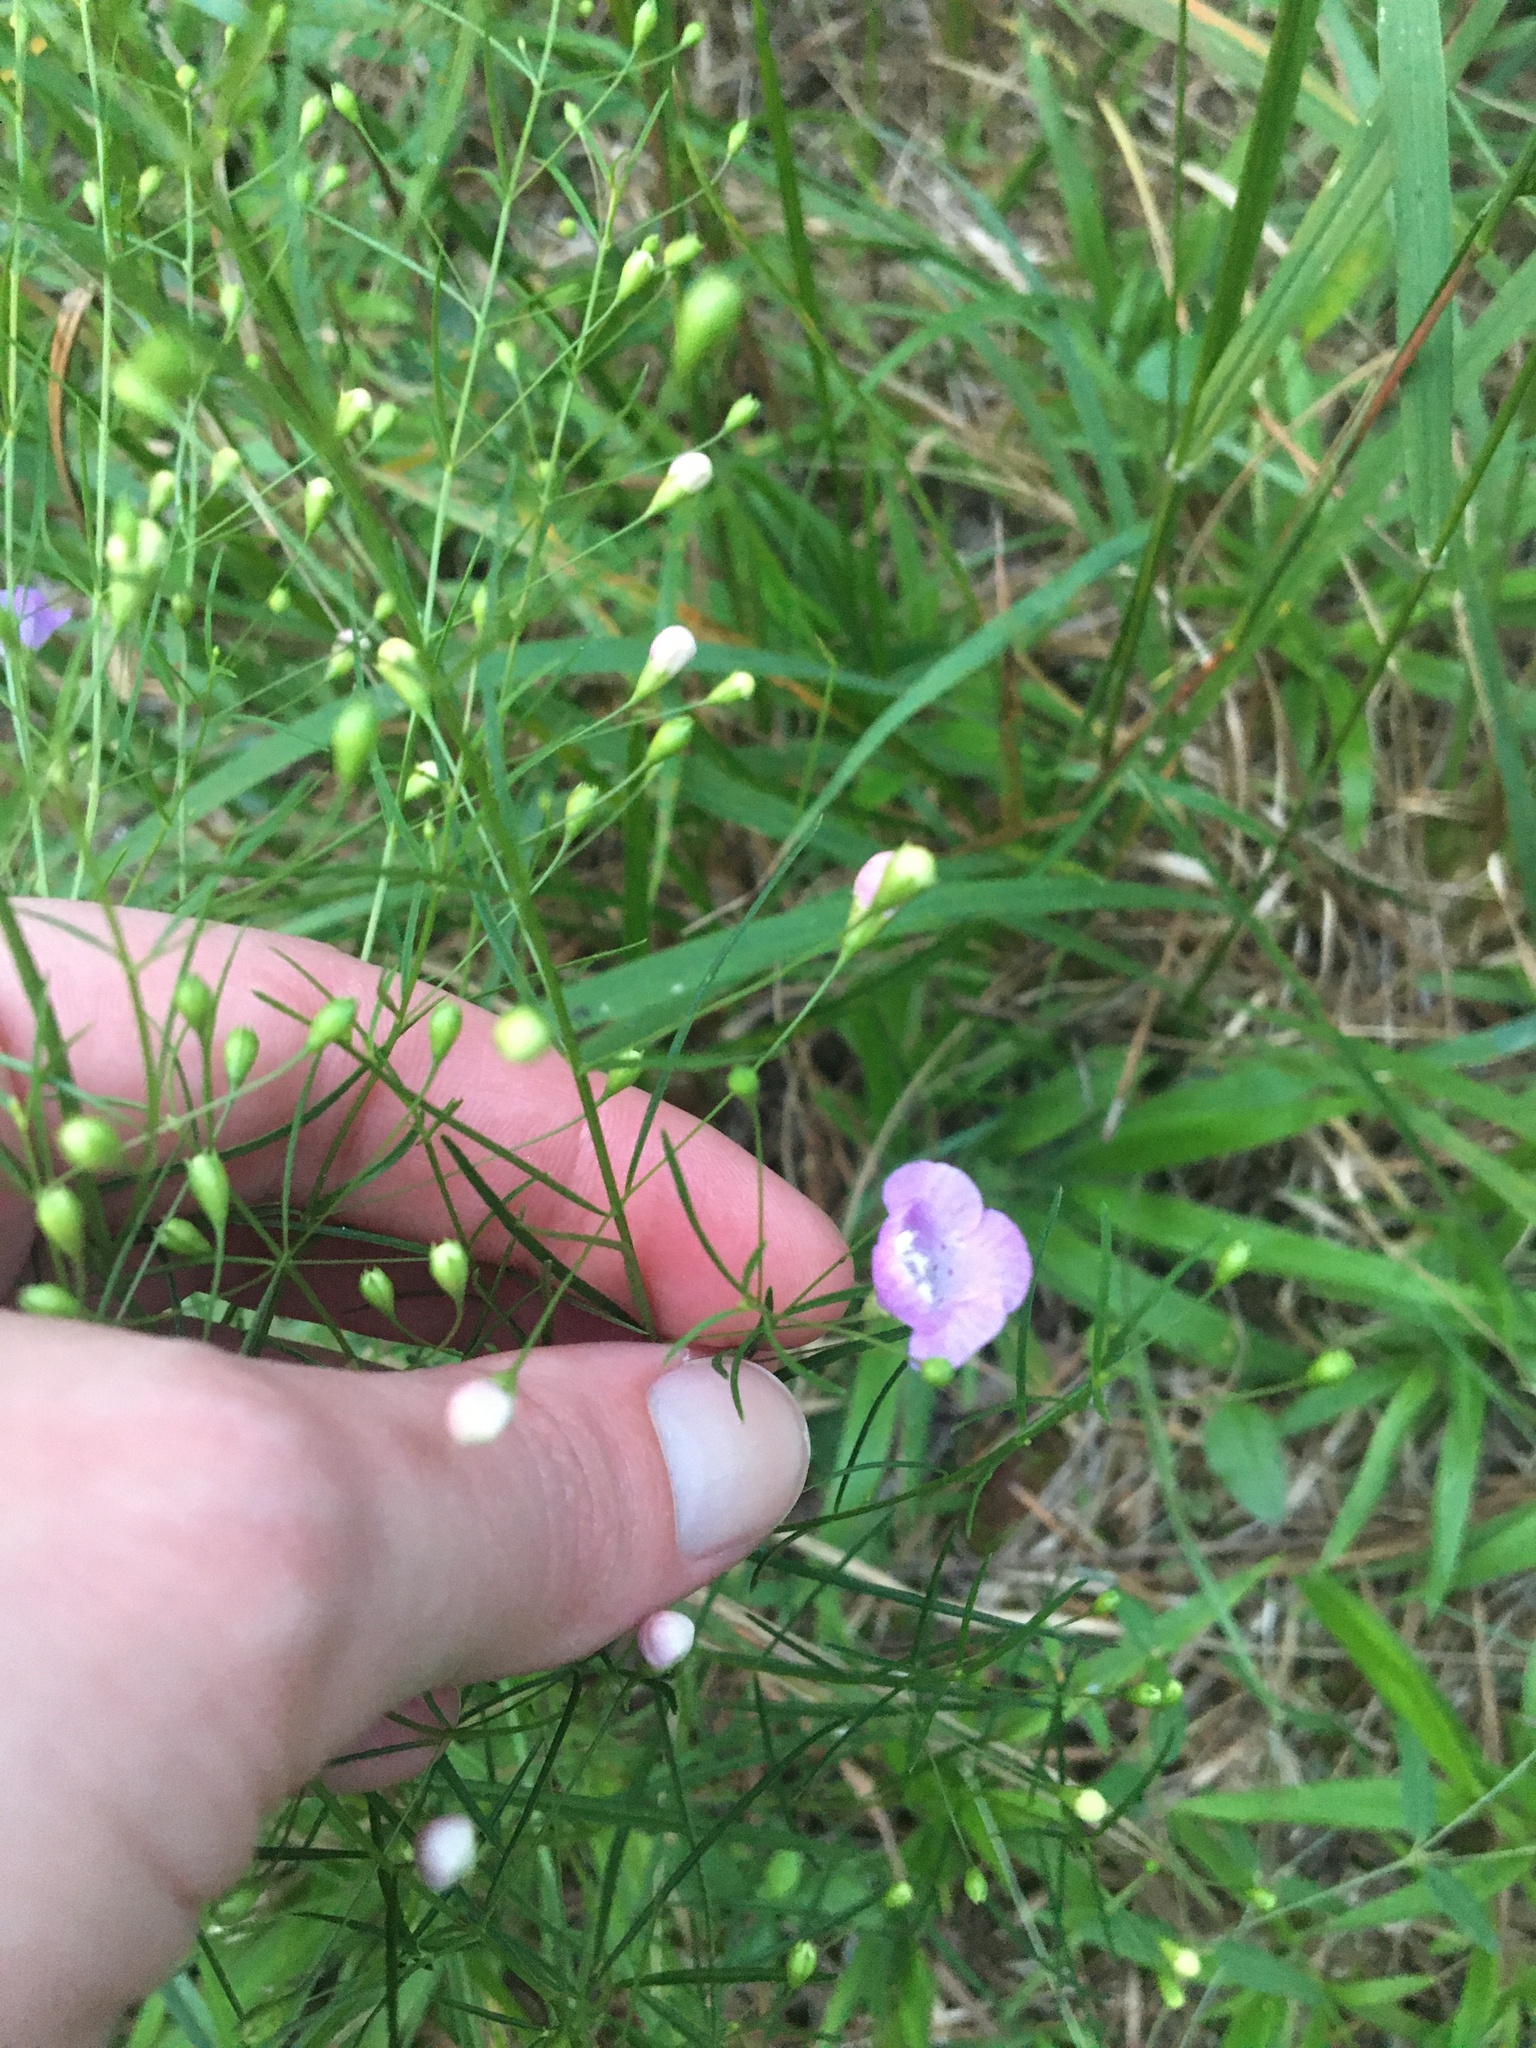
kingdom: Plantae
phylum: Tracheophyta
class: Magnoliopsida
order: Lamiales
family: Orobanchaceae
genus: Agalinis
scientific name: Agalinis tenuifolia
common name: Slender agalinis
